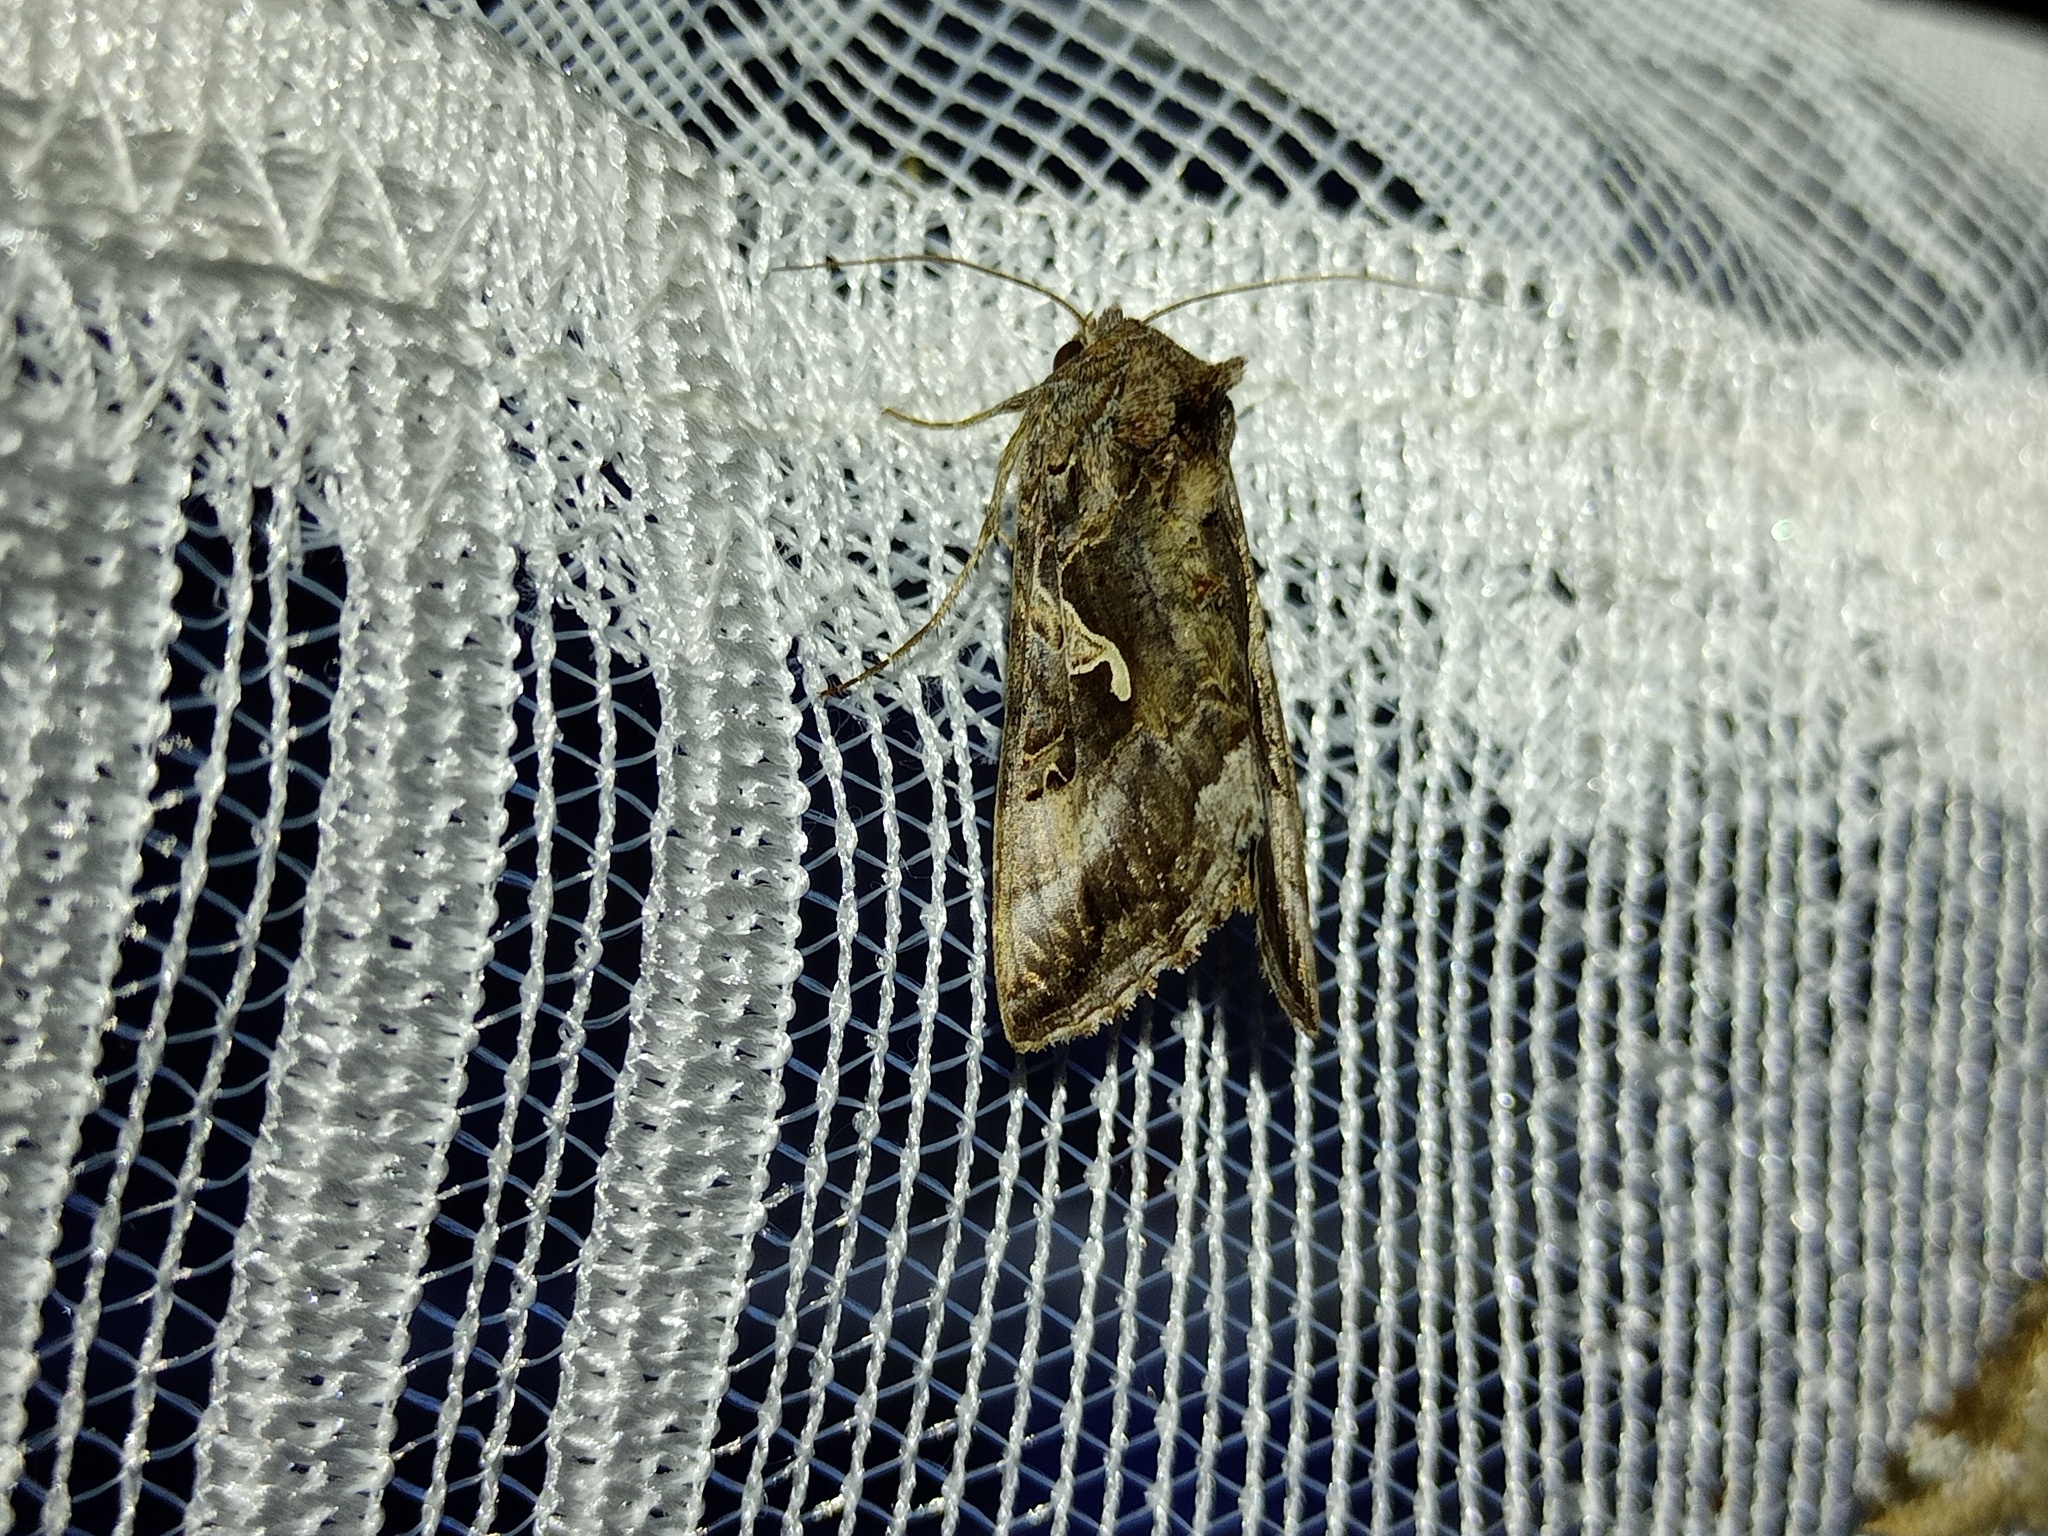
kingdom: Animalia
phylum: Arthropoda
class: Insecta
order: Lepidoptera
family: Noctuidae
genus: Autographa
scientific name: Autographa gamma
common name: Silver y
